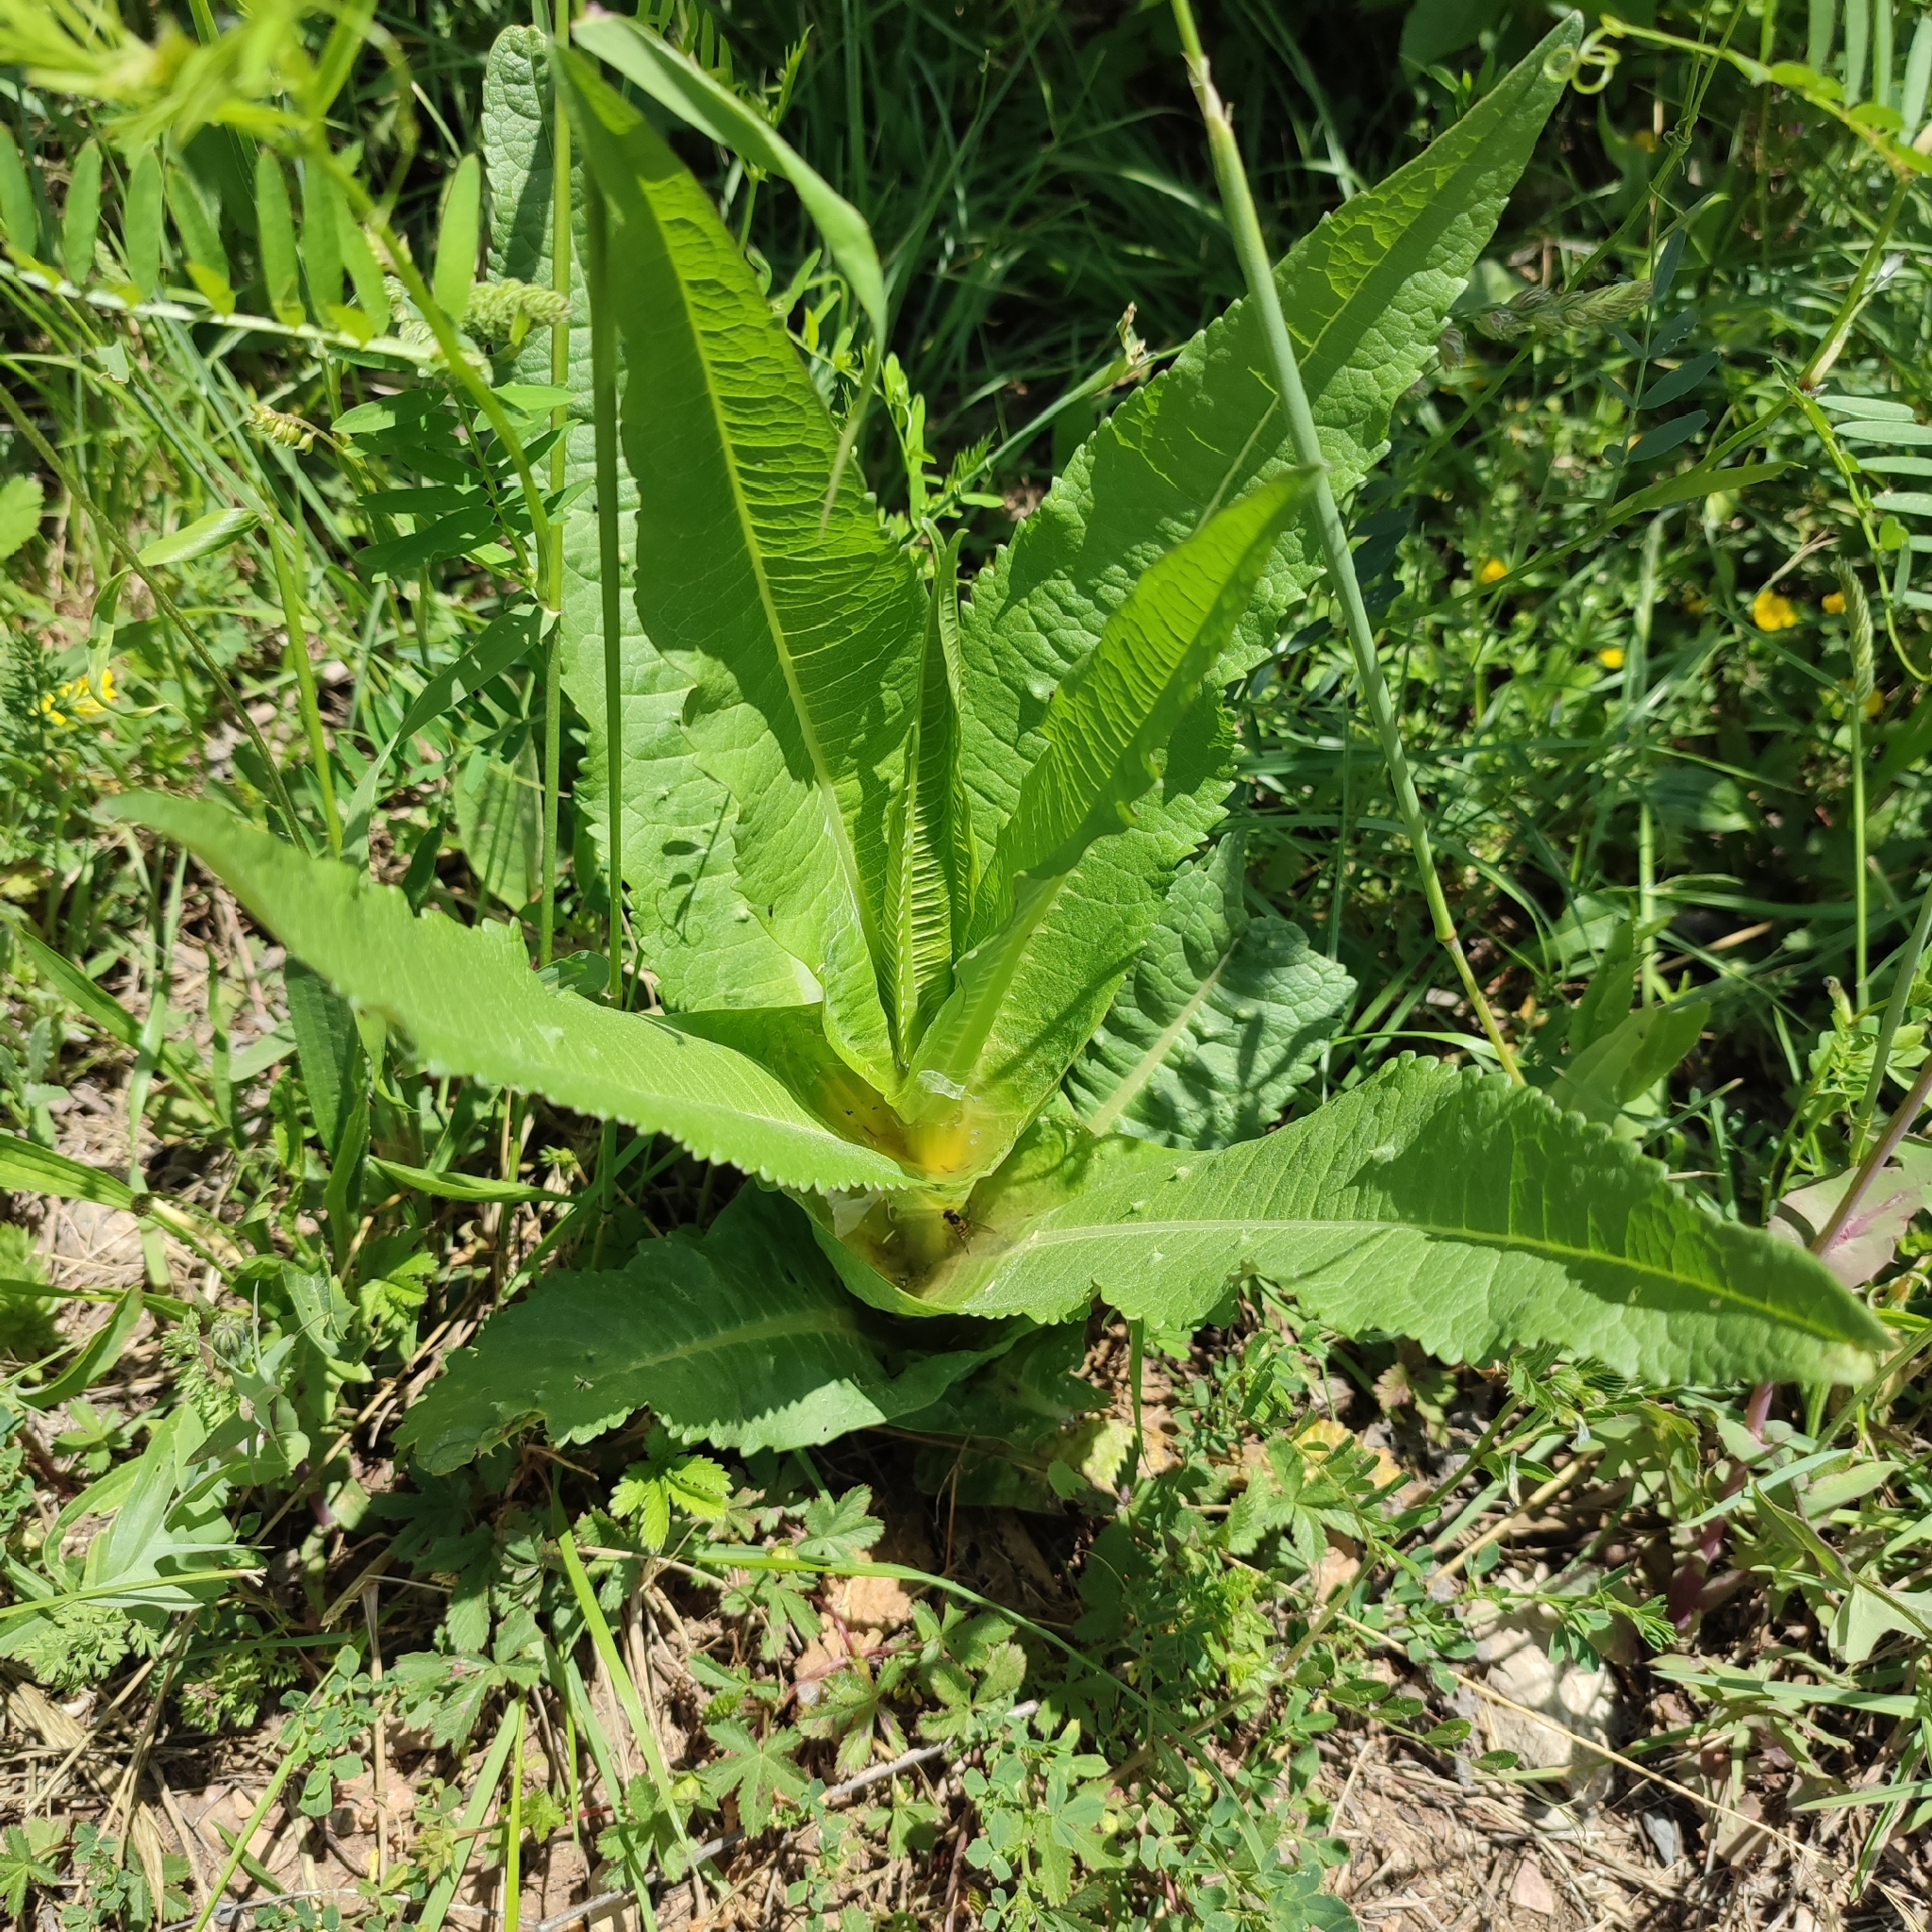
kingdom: Plantae
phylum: Tracheophyta
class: Magnoliopsida
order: Dipsacales
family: Caprifoliaceae
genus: Dipsacus
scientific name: Dipsacus fullonum
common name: Teasel
